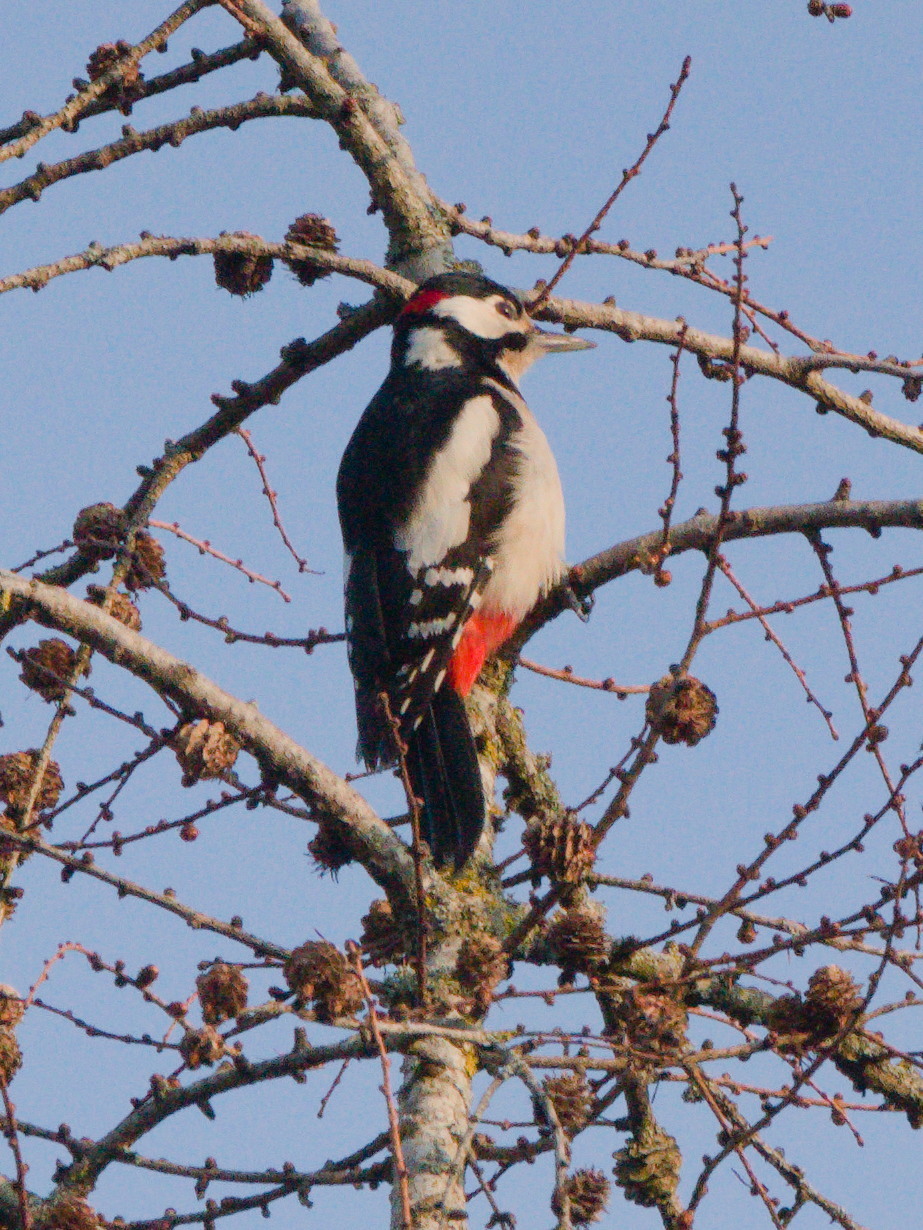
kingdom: Animalia
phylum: Chordata
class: Aves
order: Piciformes
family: Picidae
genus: Dendrocopos
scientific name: Dendrocopos major
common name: Great spotted woodpecker
